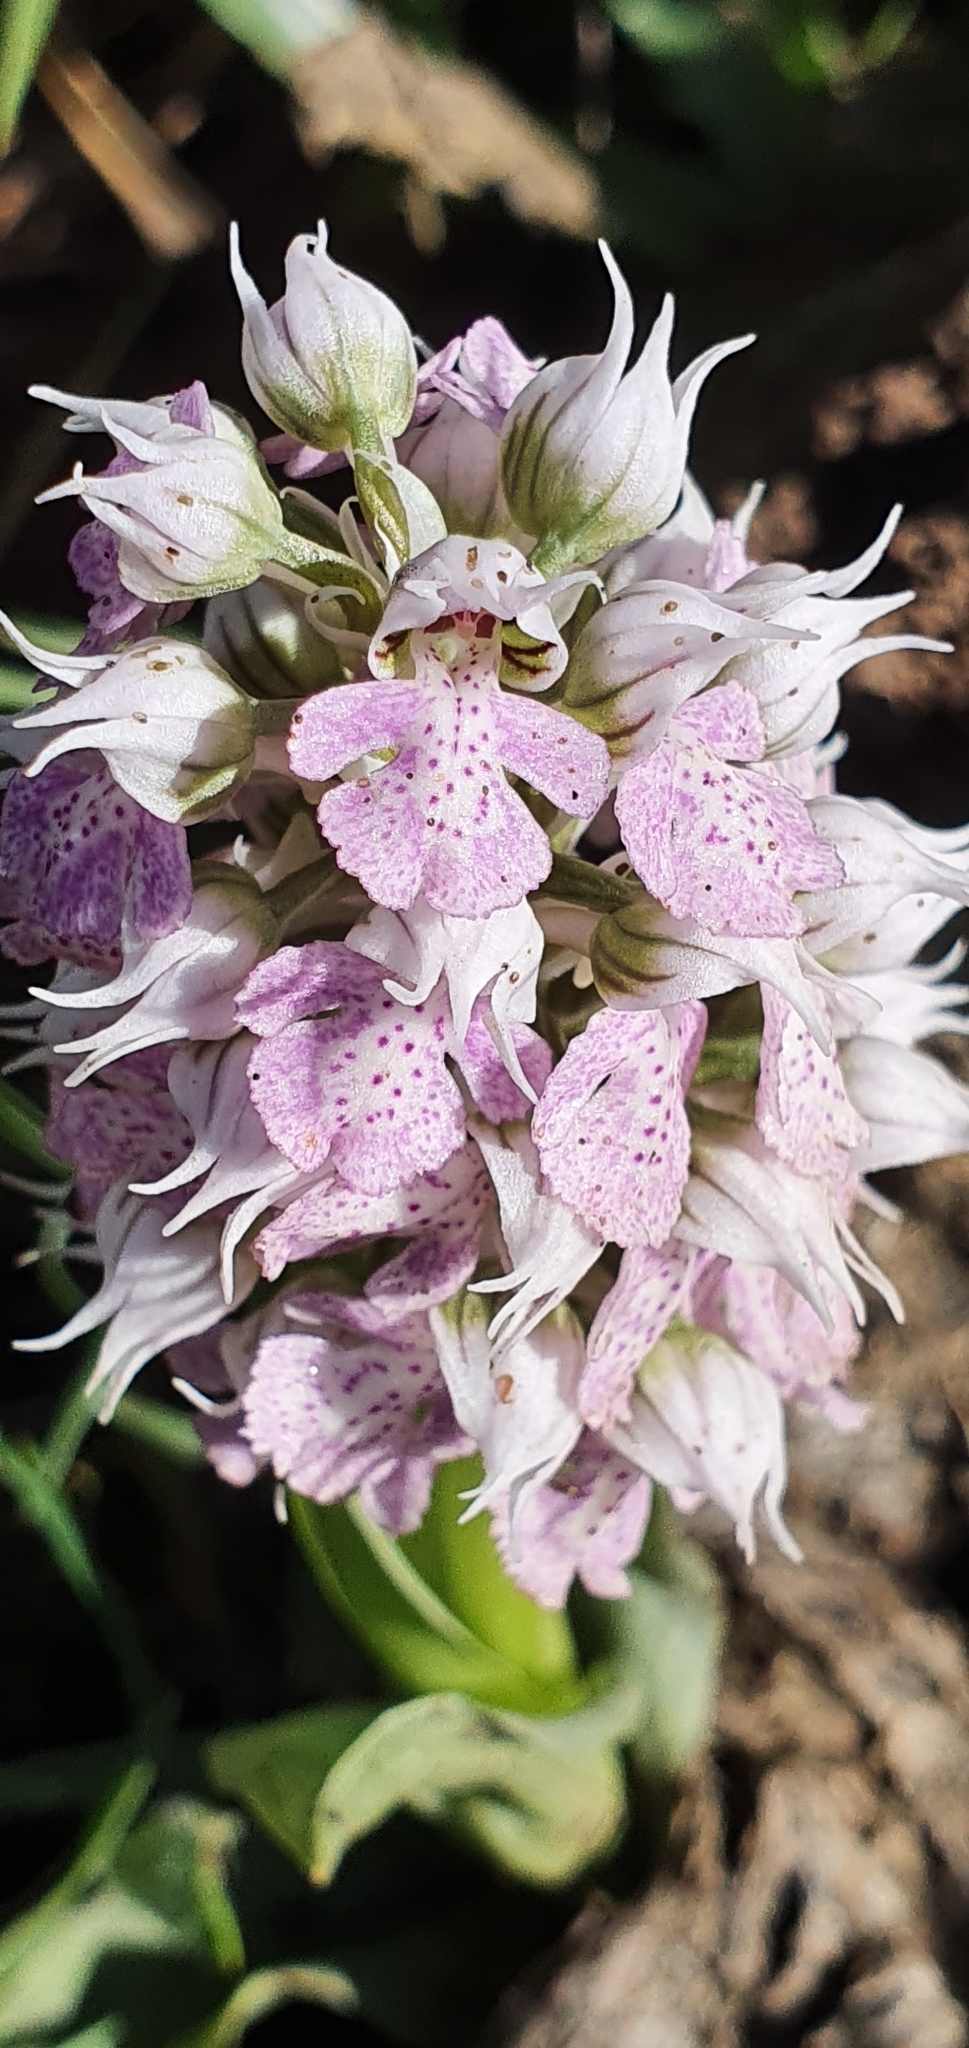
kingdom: Plantae
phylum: Tracheophyta
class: Liliopsida
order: Asparagales
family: Orchidaceae
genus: Neotinea
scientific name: Neotinea lactea
